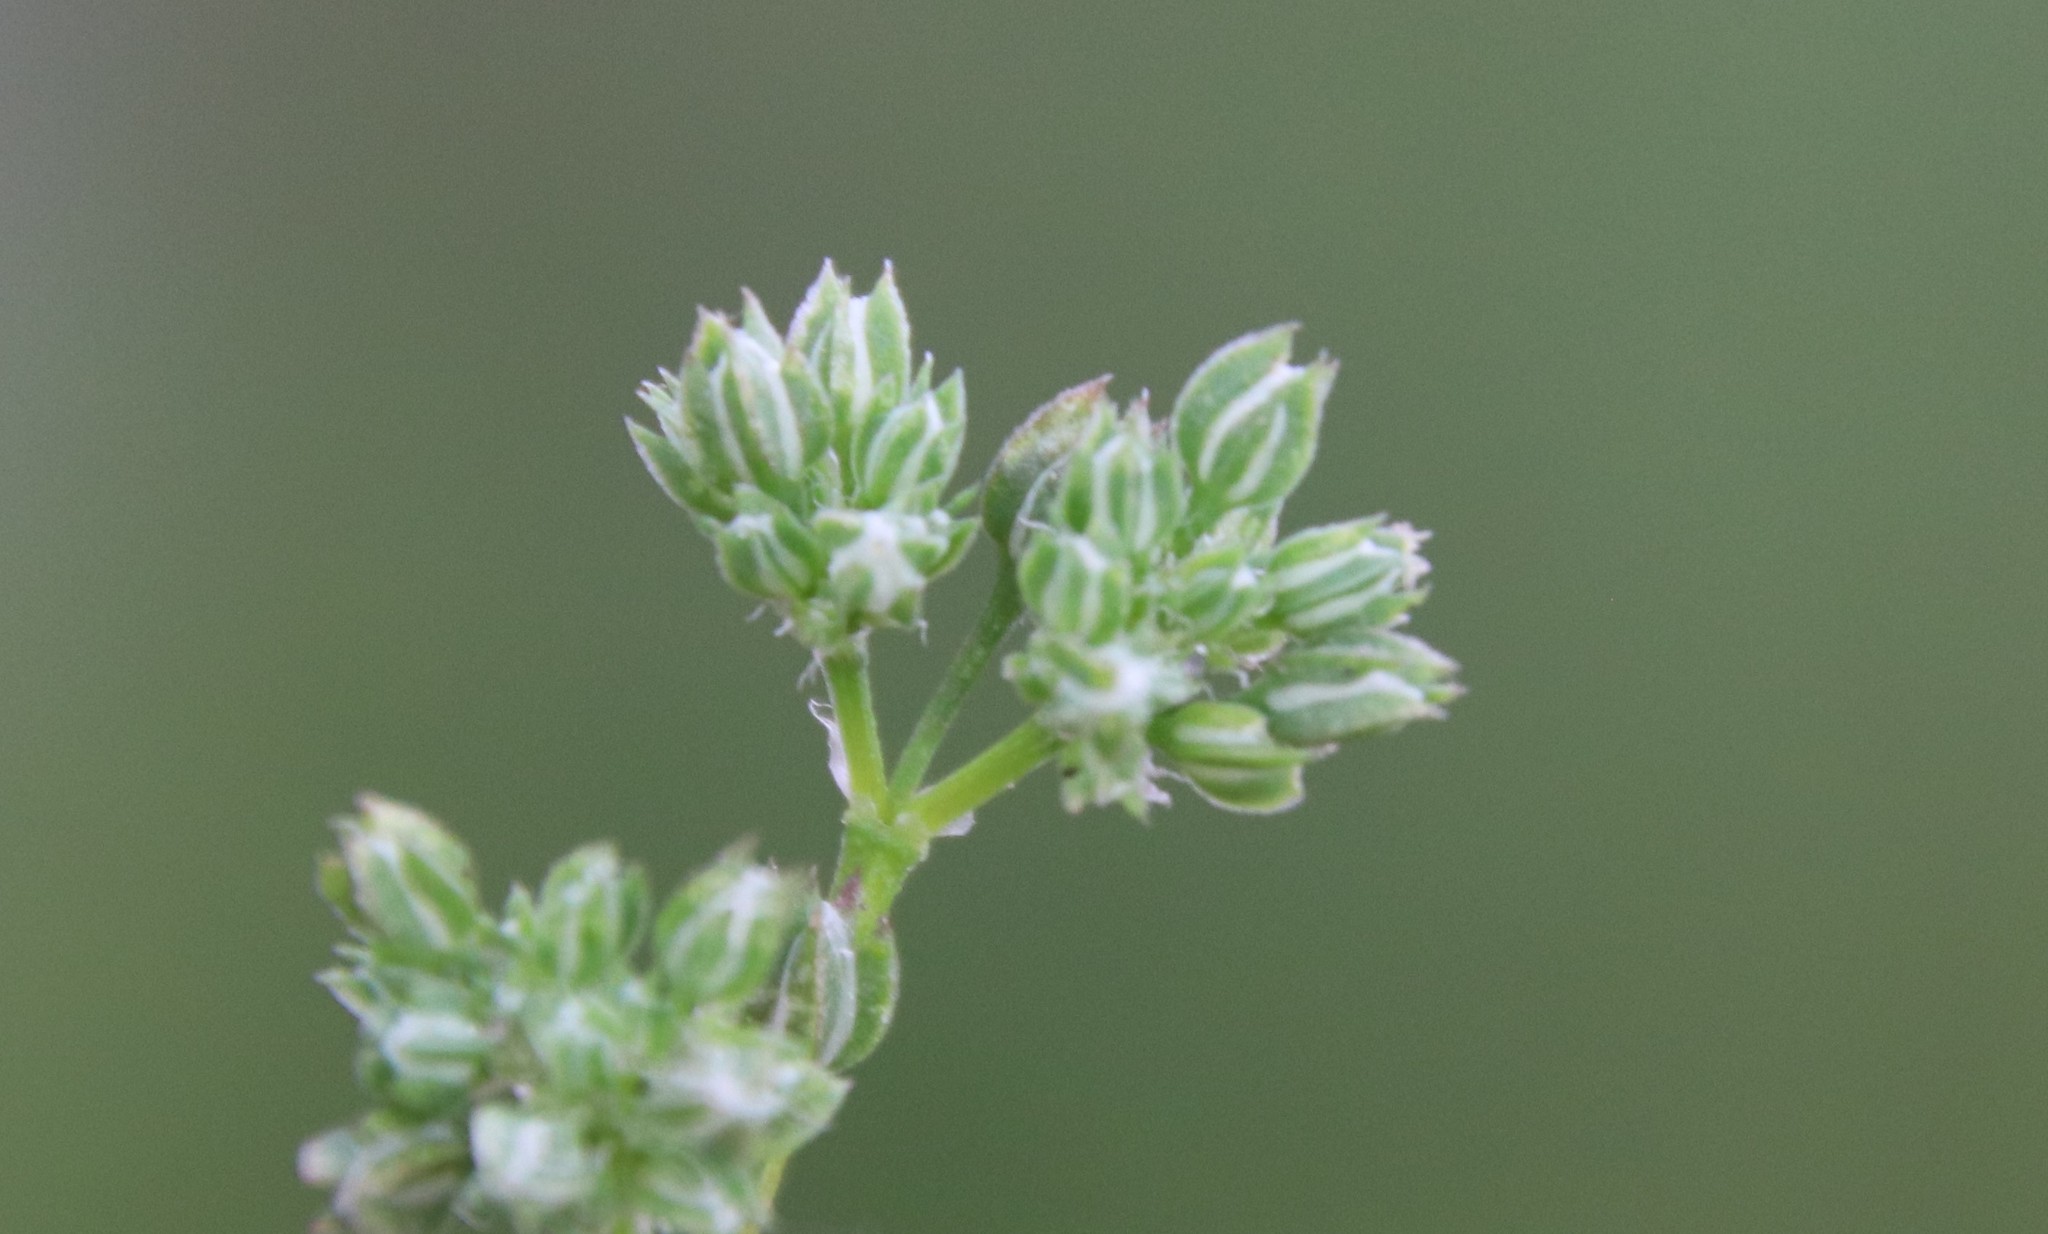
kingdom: Plantae
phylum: Tracheophyta
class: Magnoliopsida
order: Caryophyllales
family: Caryophyllaceae
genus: Polycarpon
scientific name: Polycarpon tetraphyllum
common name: Four-leaved all-seed
